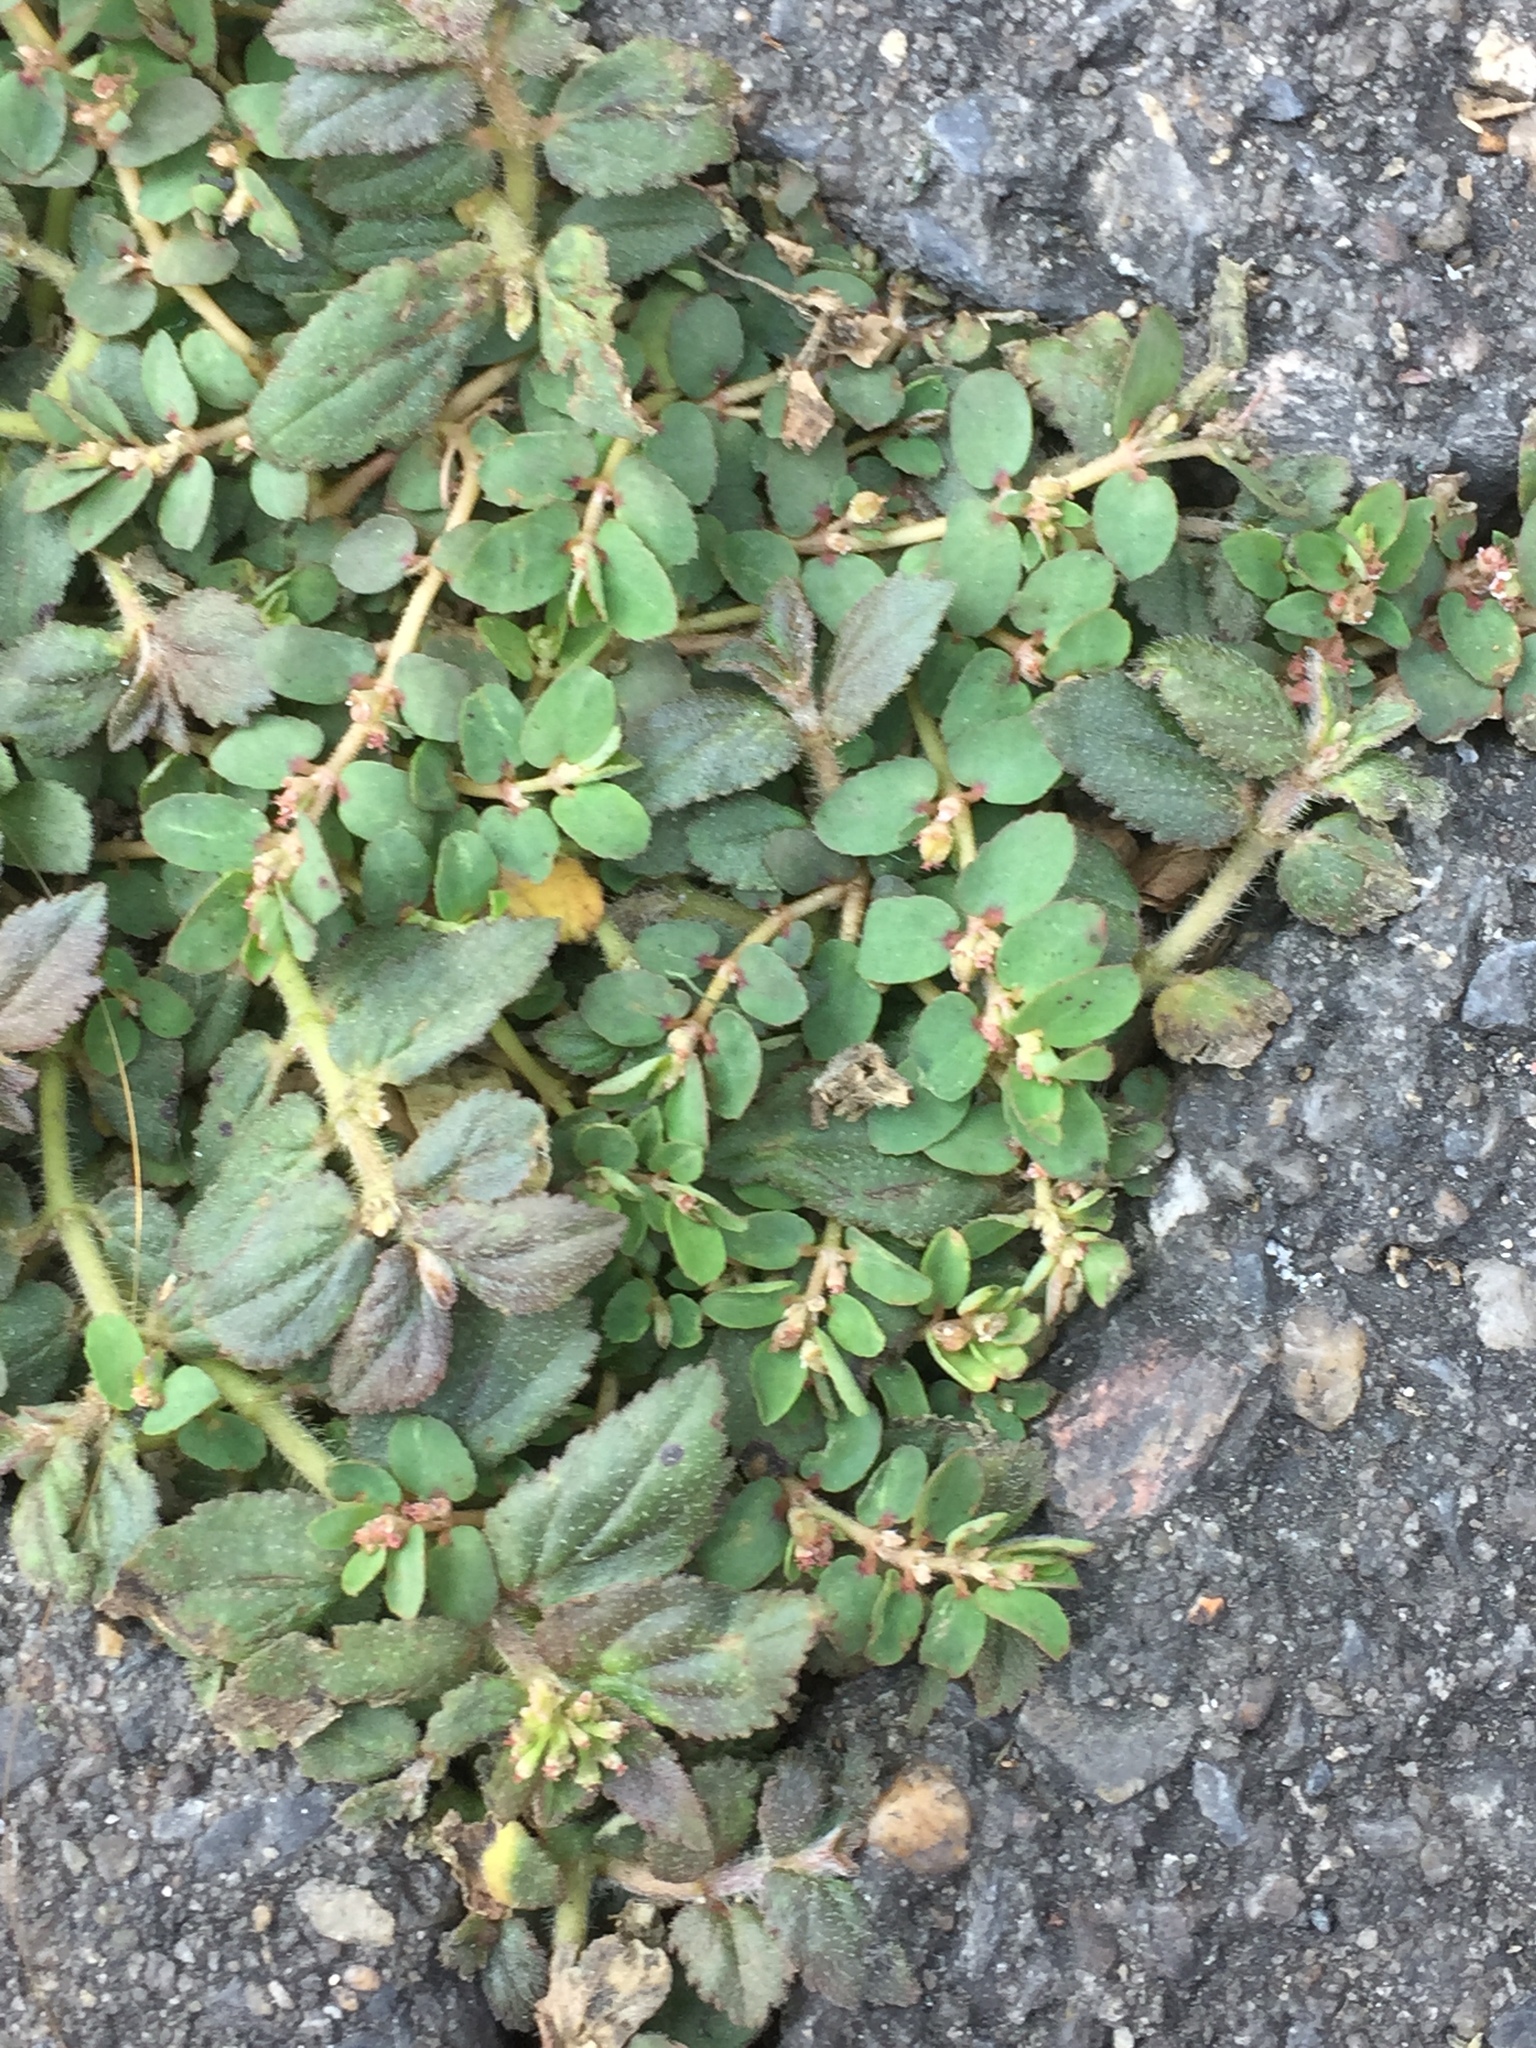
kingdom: Plantae
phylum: Tracheophyta
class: Magnoliopsida
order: Malpighiales
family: Euphorbiaceae
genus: Euphorbia
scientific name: Euphorbia hirta
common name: Pillpod sandmat
